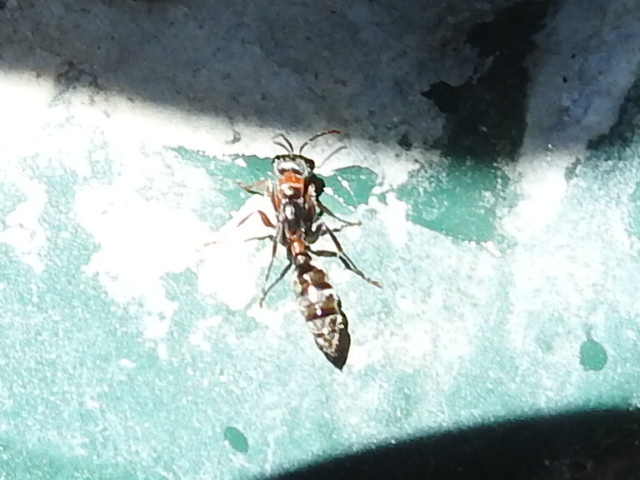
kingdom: Animalia
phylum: Arthropoda
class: Insecta
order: Hymenoptera
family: Formicidae
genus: Pseudomyrmex
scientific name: Pseudomyrmex gracilis
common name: Graceful twig ant
